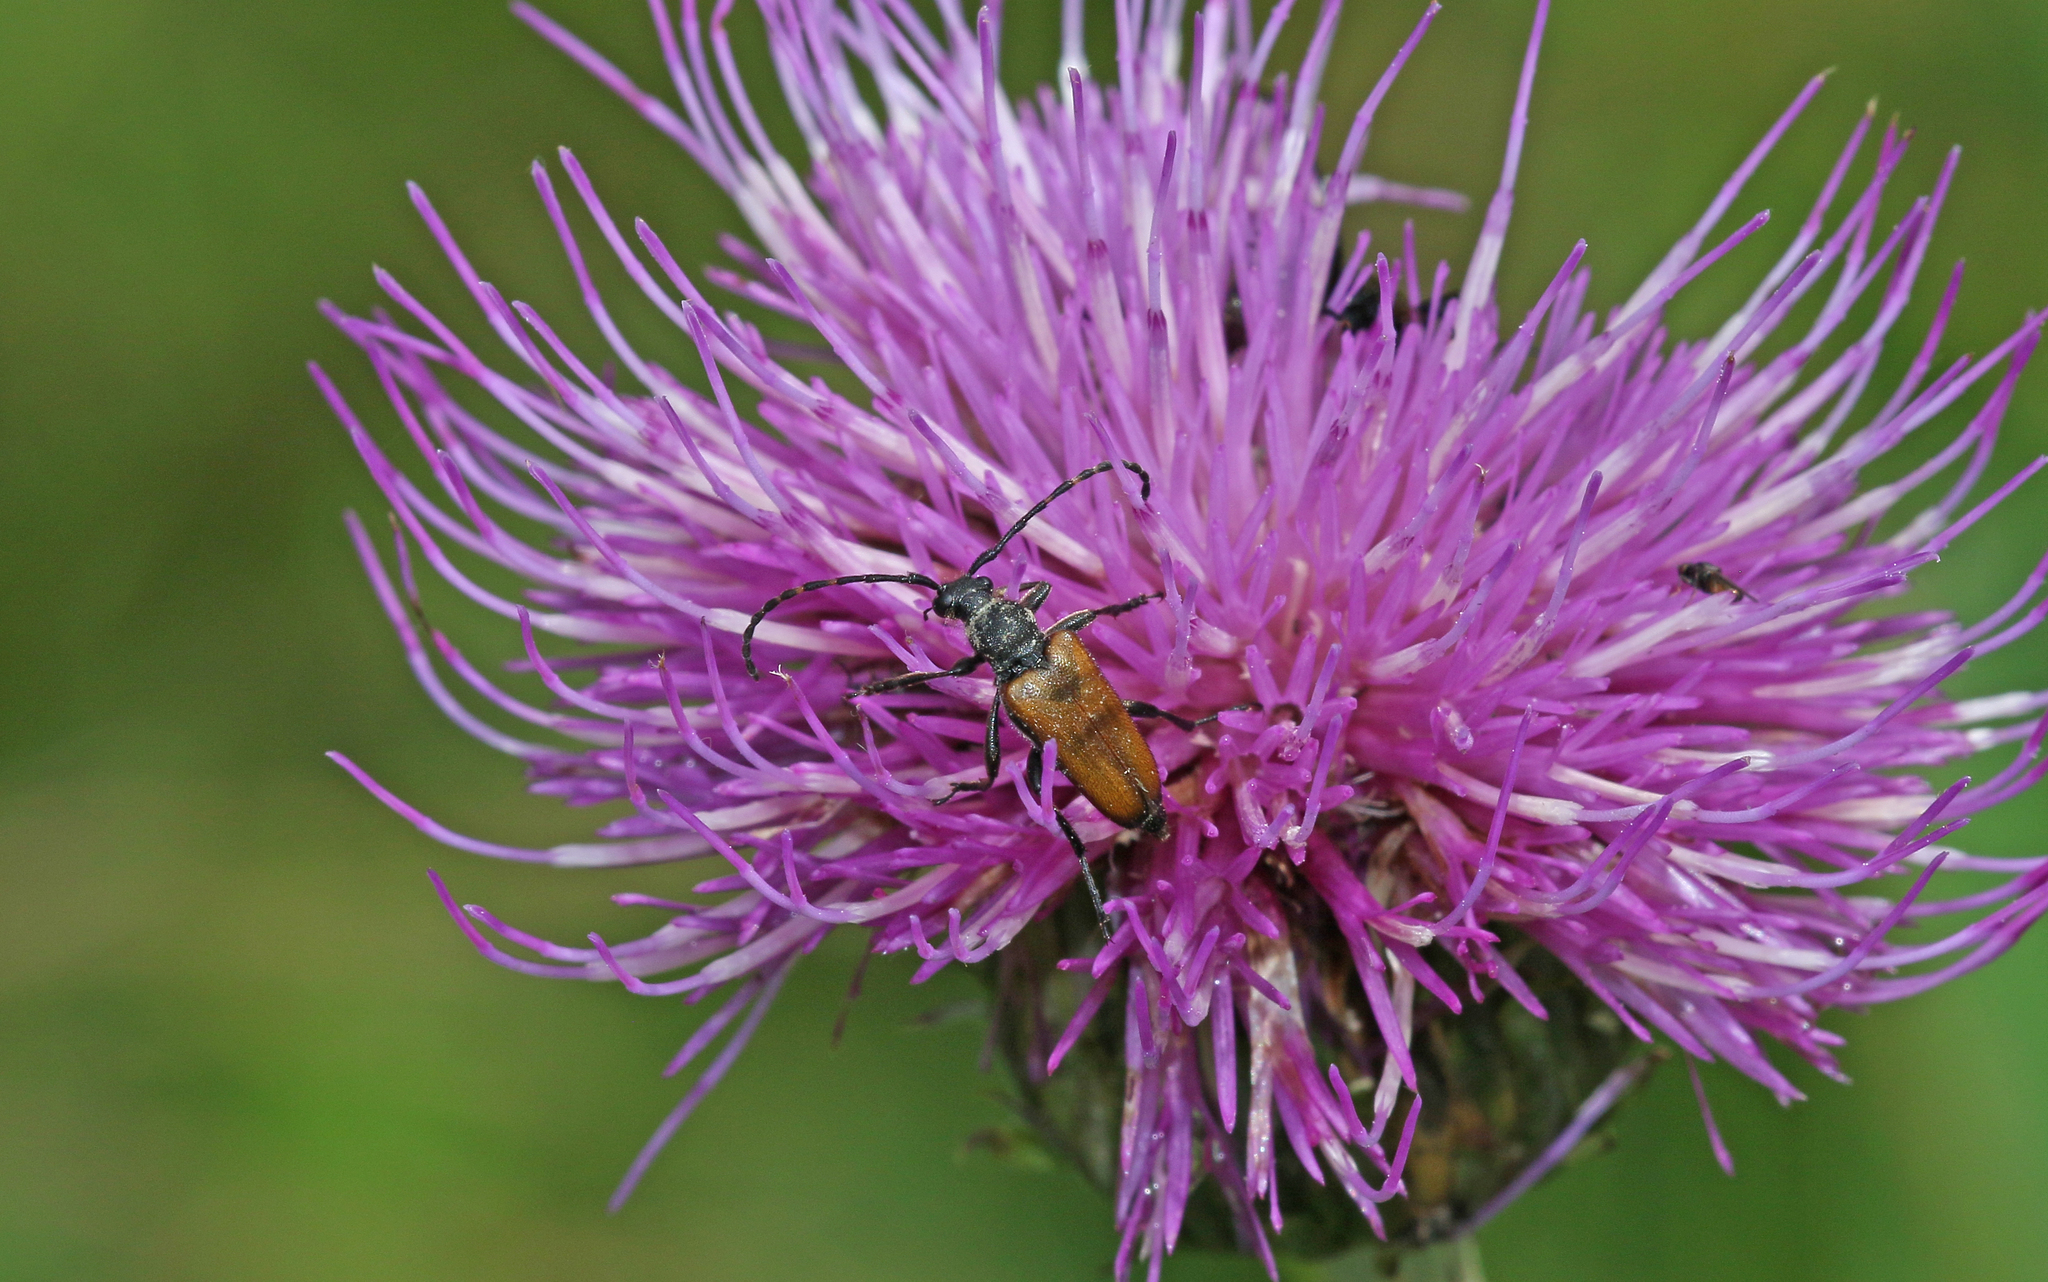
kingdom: Animalia
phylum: Arthropoda
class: Insecta
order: Coleoptera
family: Cerambycidae
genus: Paracorymbia
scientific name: Paracorymbia maculicornis
